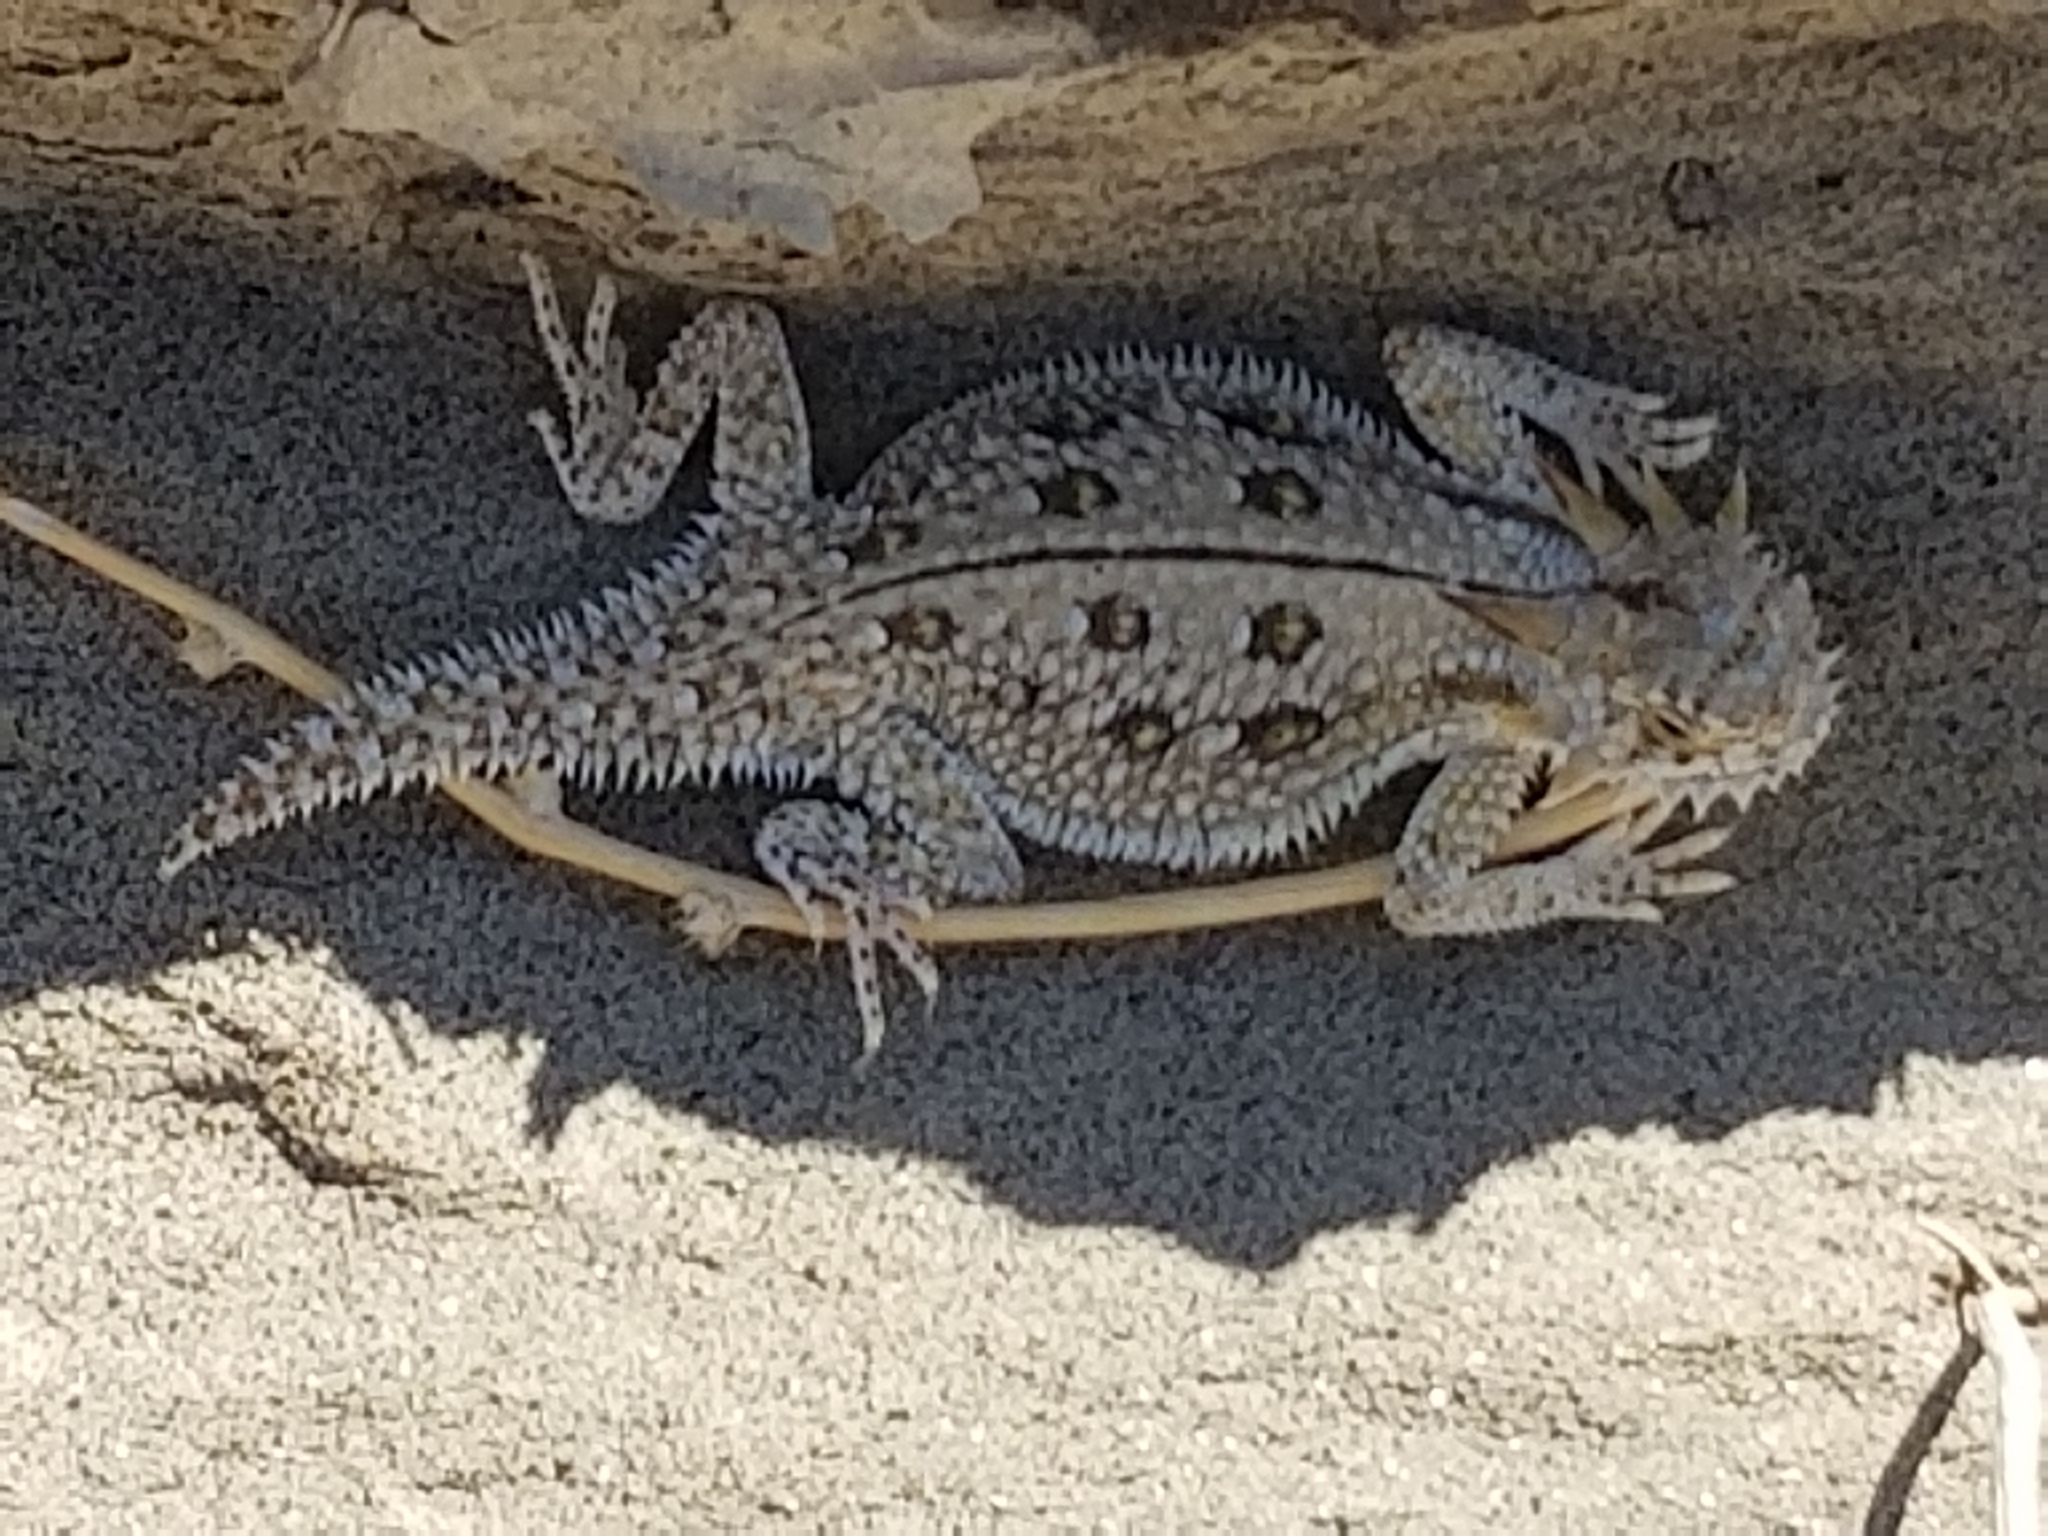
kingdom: Animalia
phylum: Chordata
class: Squamata
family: Phrynosomatidae
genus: Phrynosoma
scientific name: Phrynosoma mcallii
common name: Flat-tailed horned lizard
